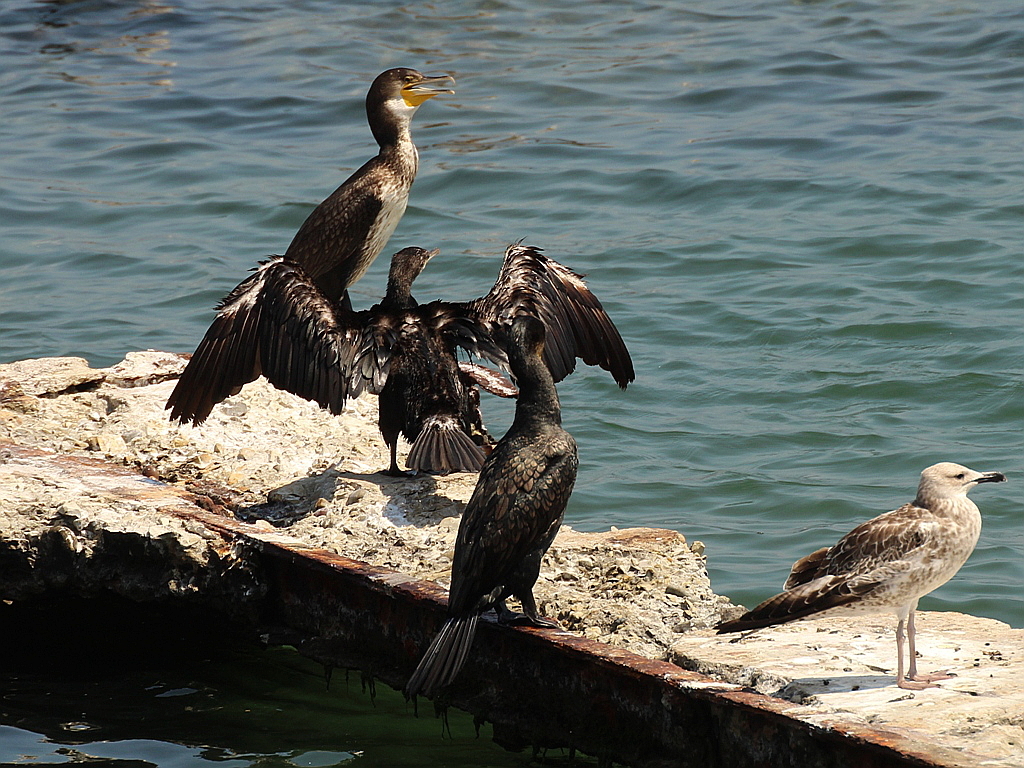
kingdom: Animalia
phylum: Chordata
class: Aves
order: Suliformes
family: Phalacrocoracidae
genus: Phalacrocorax
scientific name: Phalacrocorax carbo
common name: Great cormorant
